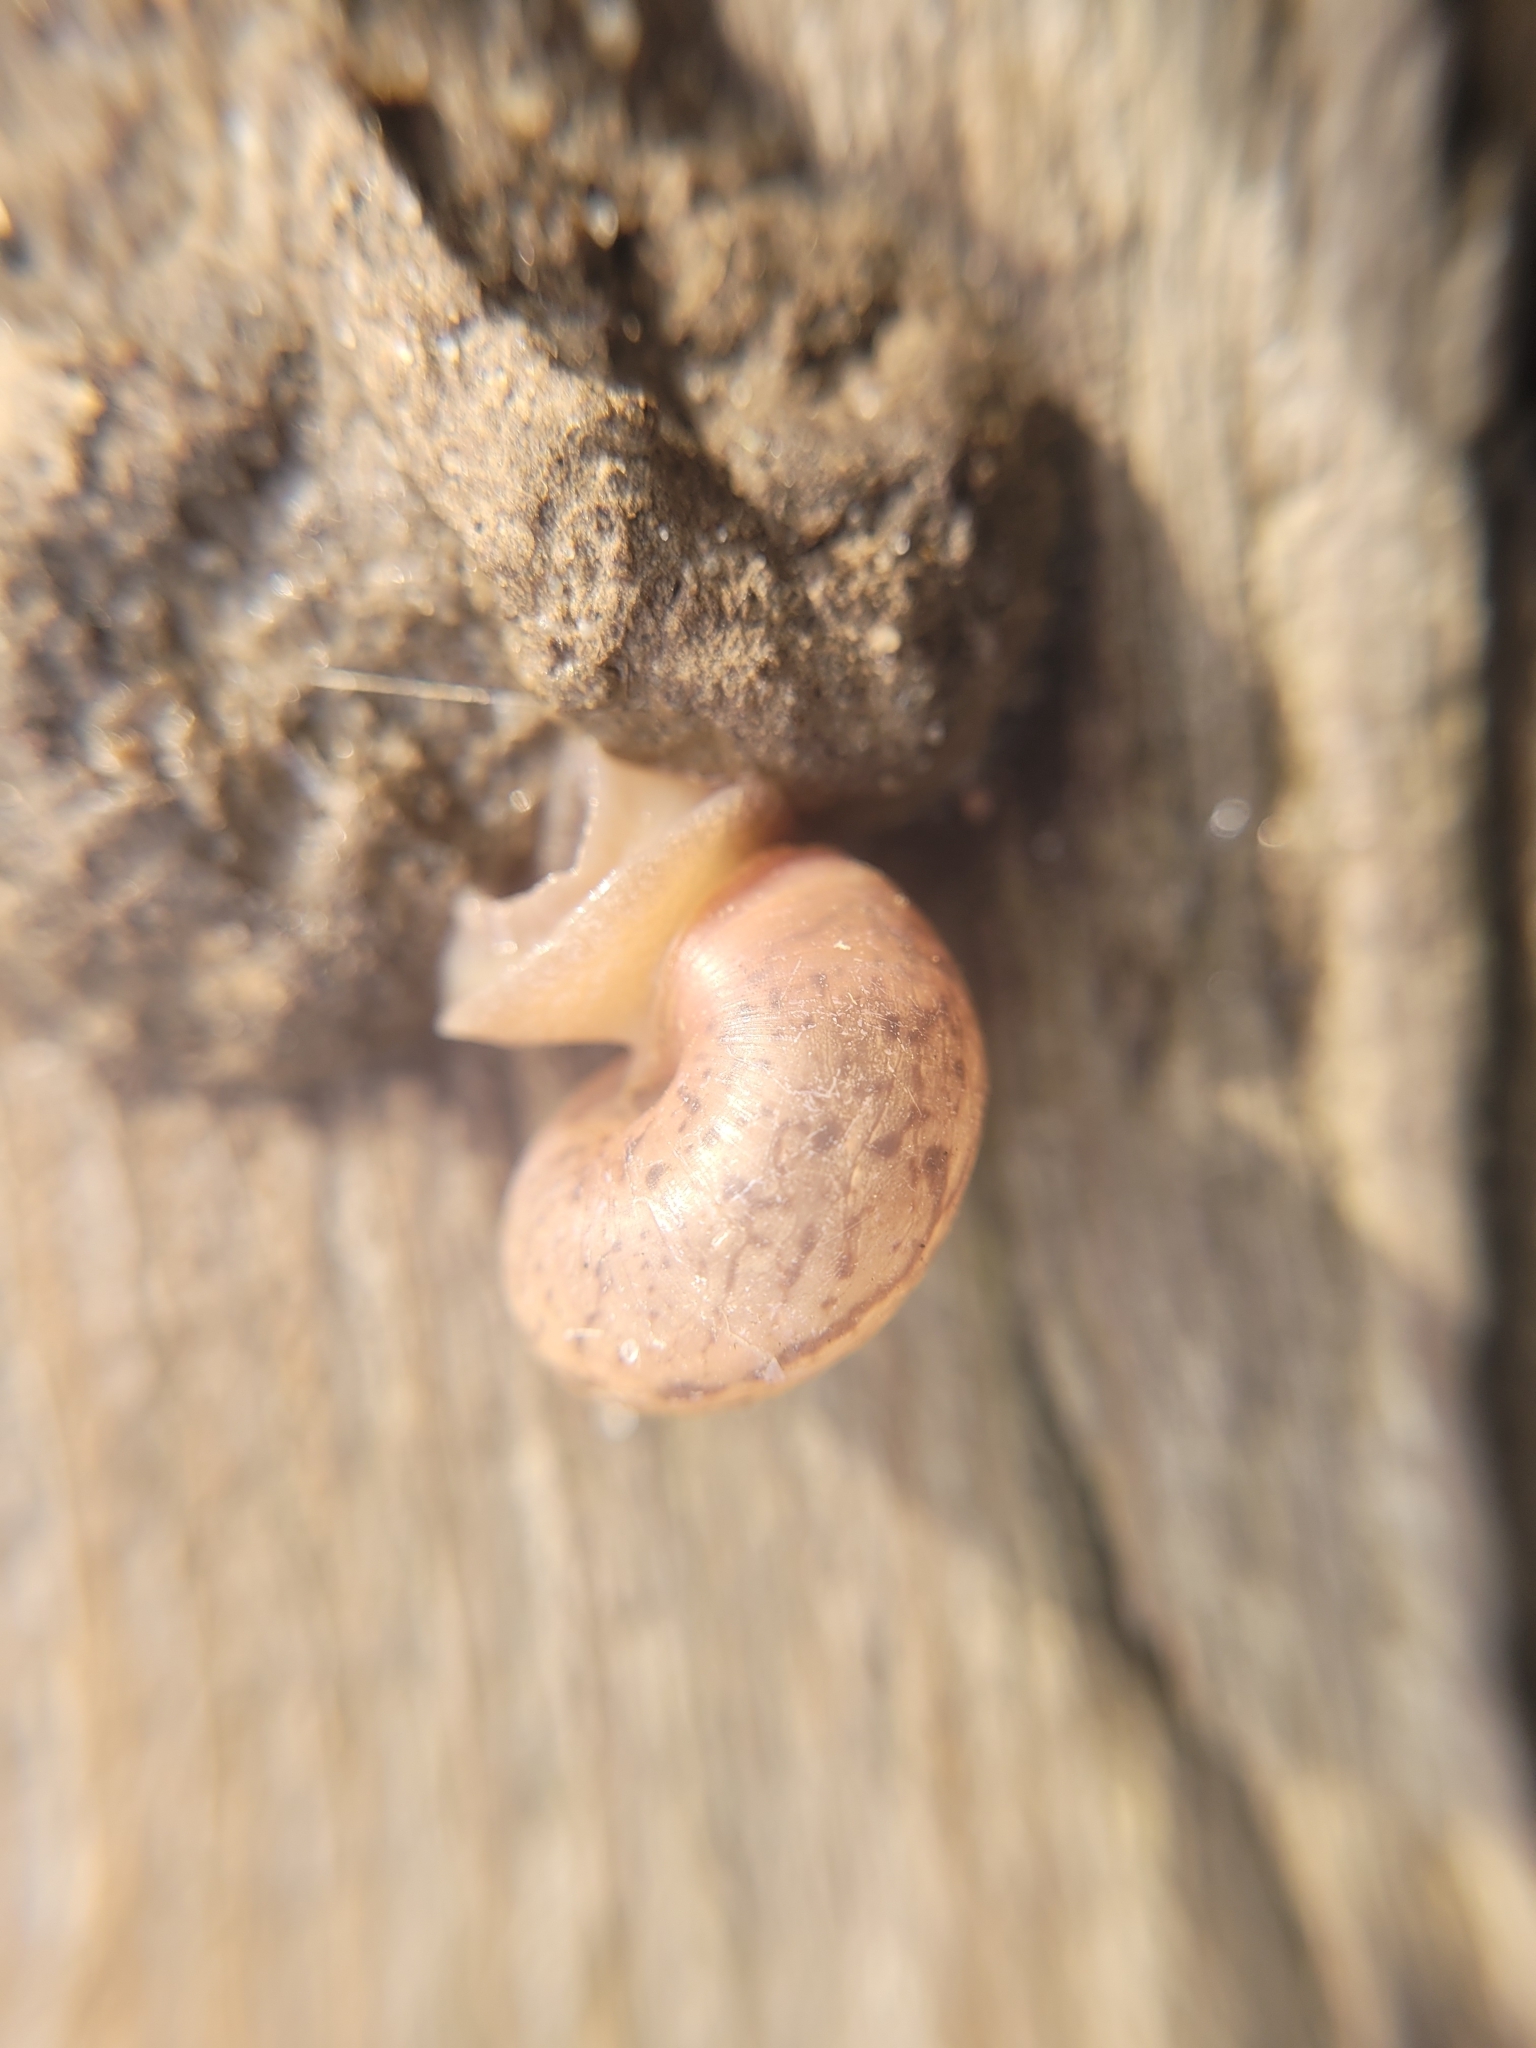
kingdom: Animalia
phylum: Mollusca
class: Gastropoda
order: Stylommatophora
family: Camaenidae
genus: Fruticicola
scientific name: Fruticicola fruticum
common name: Bush snail
